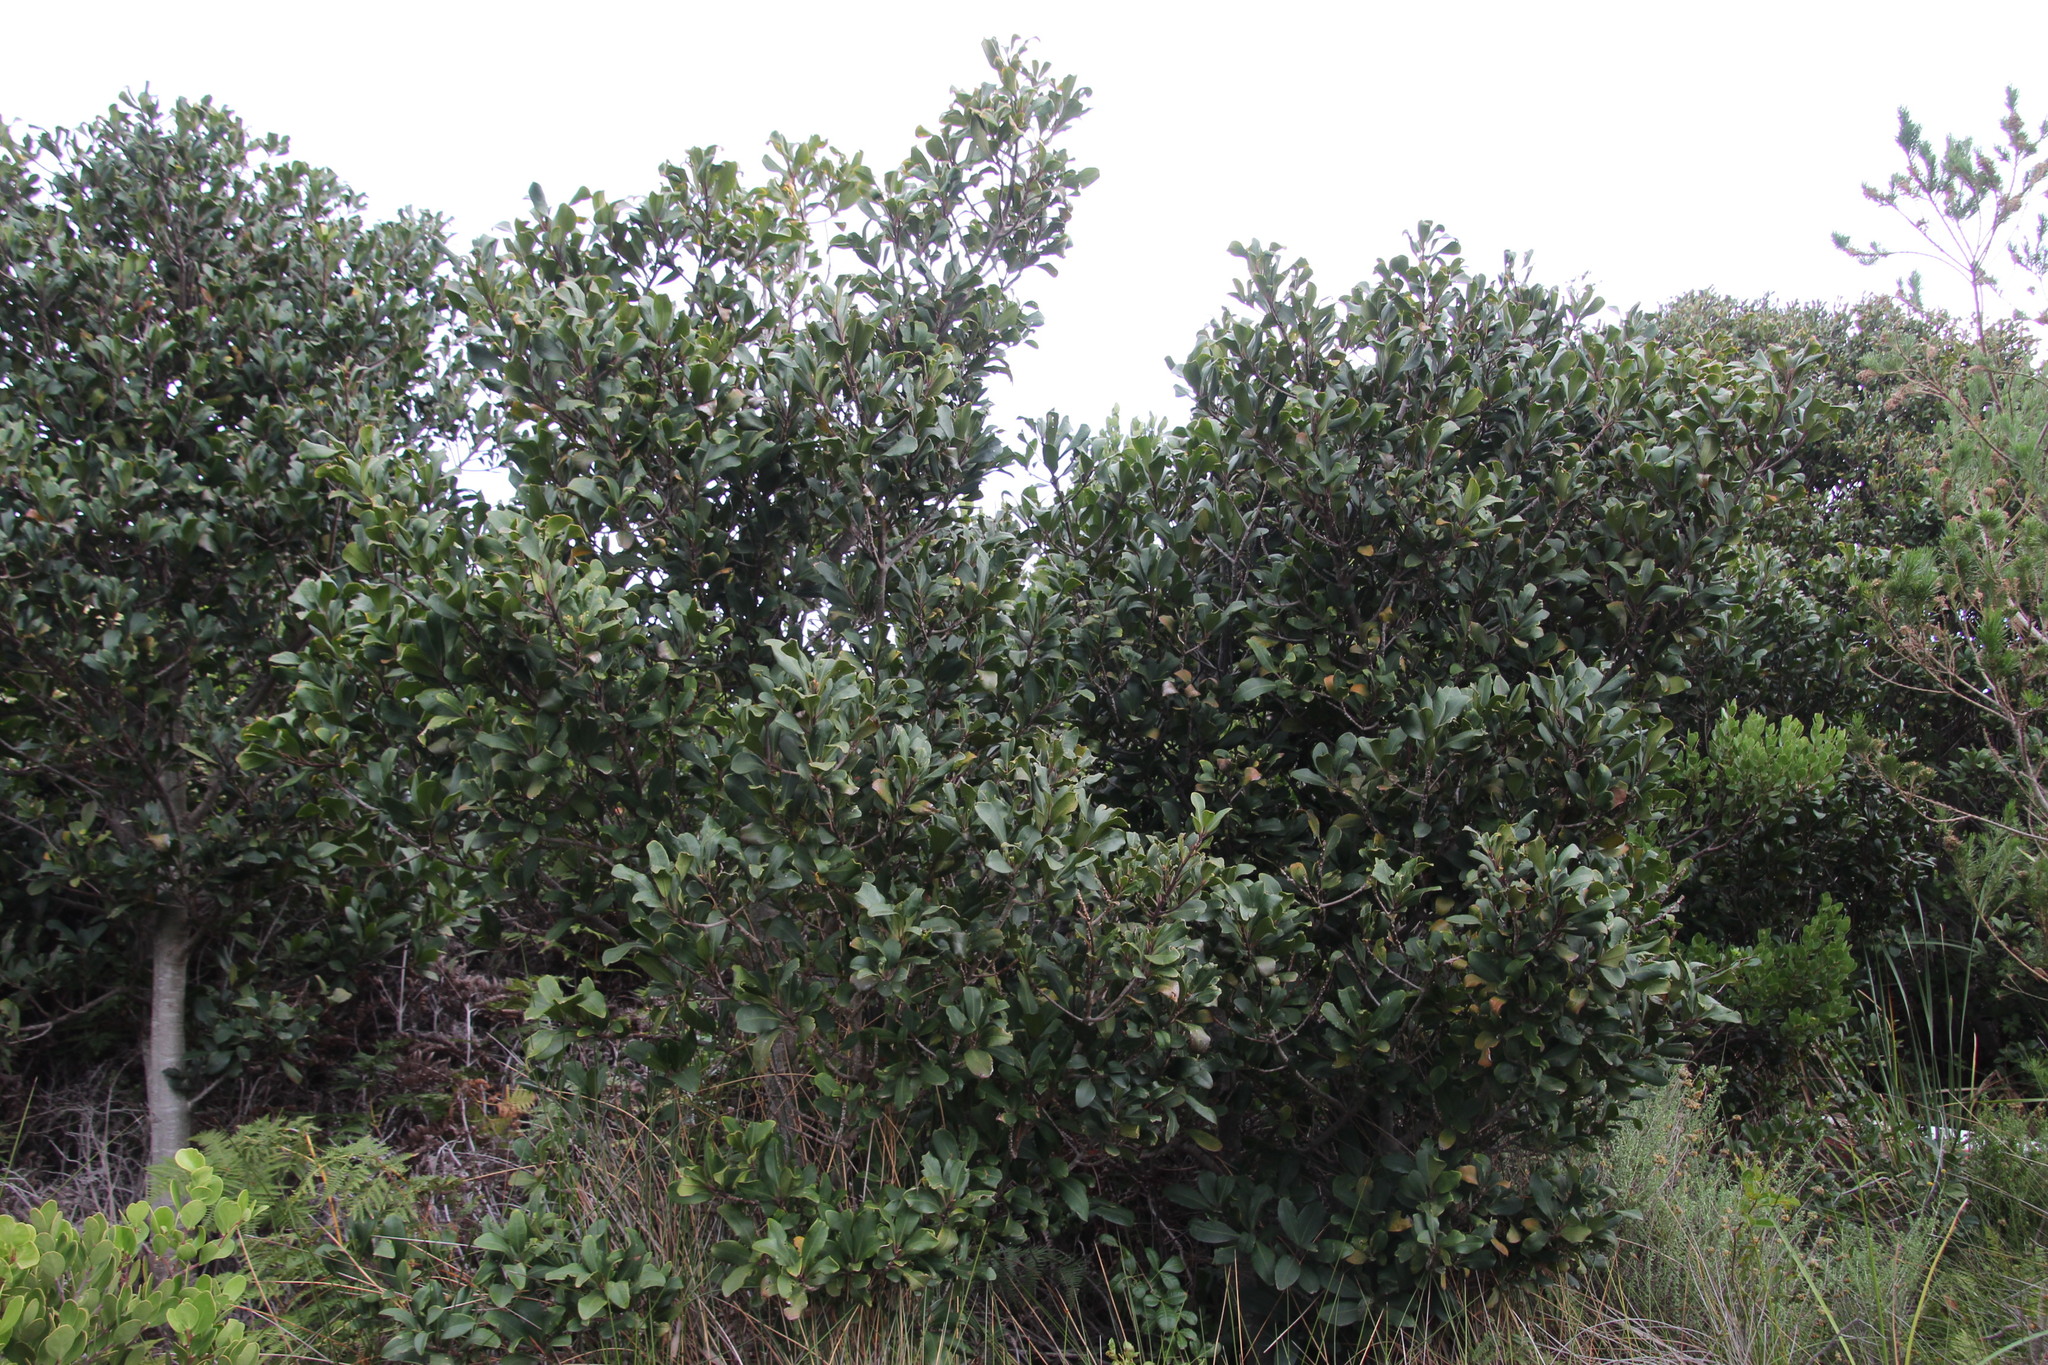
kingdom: Plantae
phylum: Tracheophyta
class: Magnoliopsida
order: Ericales
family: Primulaceae
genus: Myrsine
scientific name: Myrsine melanophloeos
